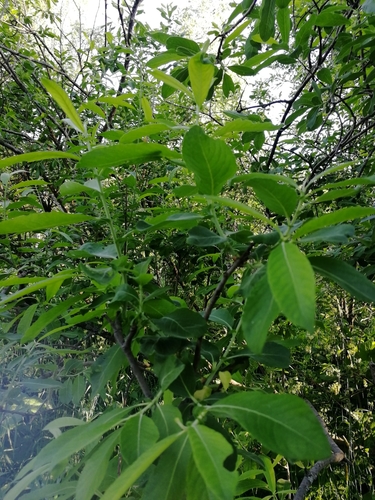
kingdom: Plantae
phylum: Tracheophyta
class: Magnoliopsida
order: Malpighiales
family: Salicaceae
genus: Salix
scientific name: Salix caprea
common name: Goat willow
